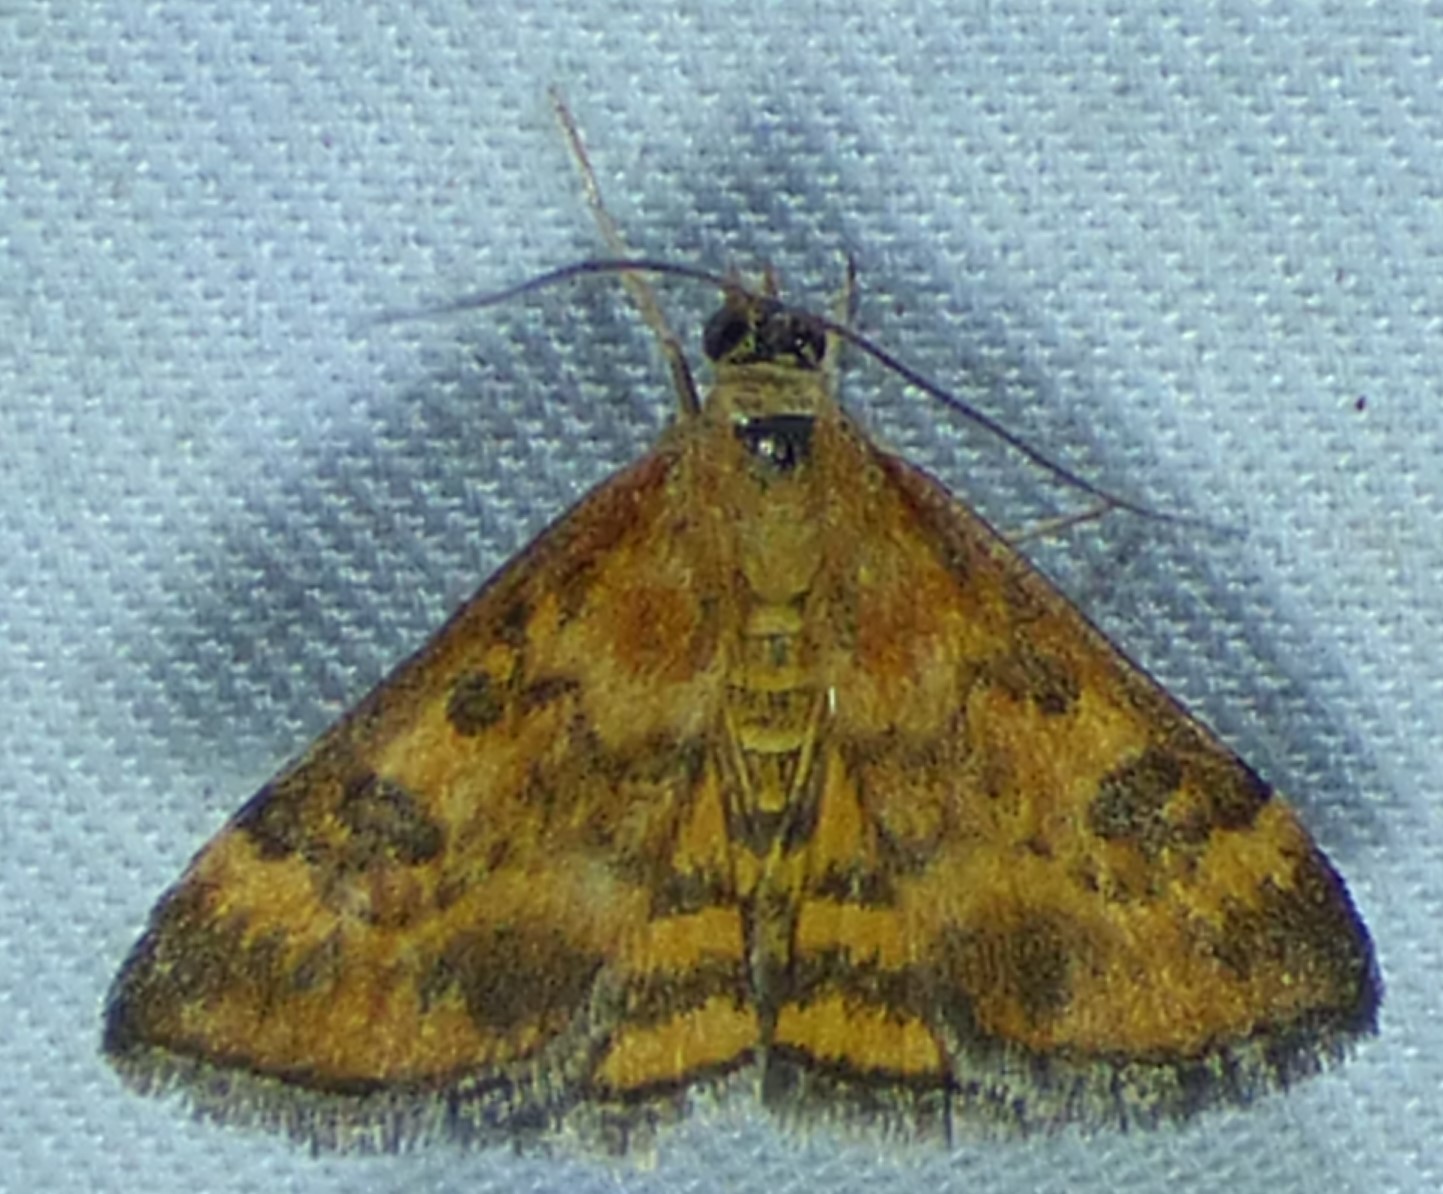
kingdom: Animalia
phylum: Arthropoda
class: Insecta
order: Lepidoptera
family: Crambidae
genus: Pyrausta
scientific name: Pyrausta subsequalis
